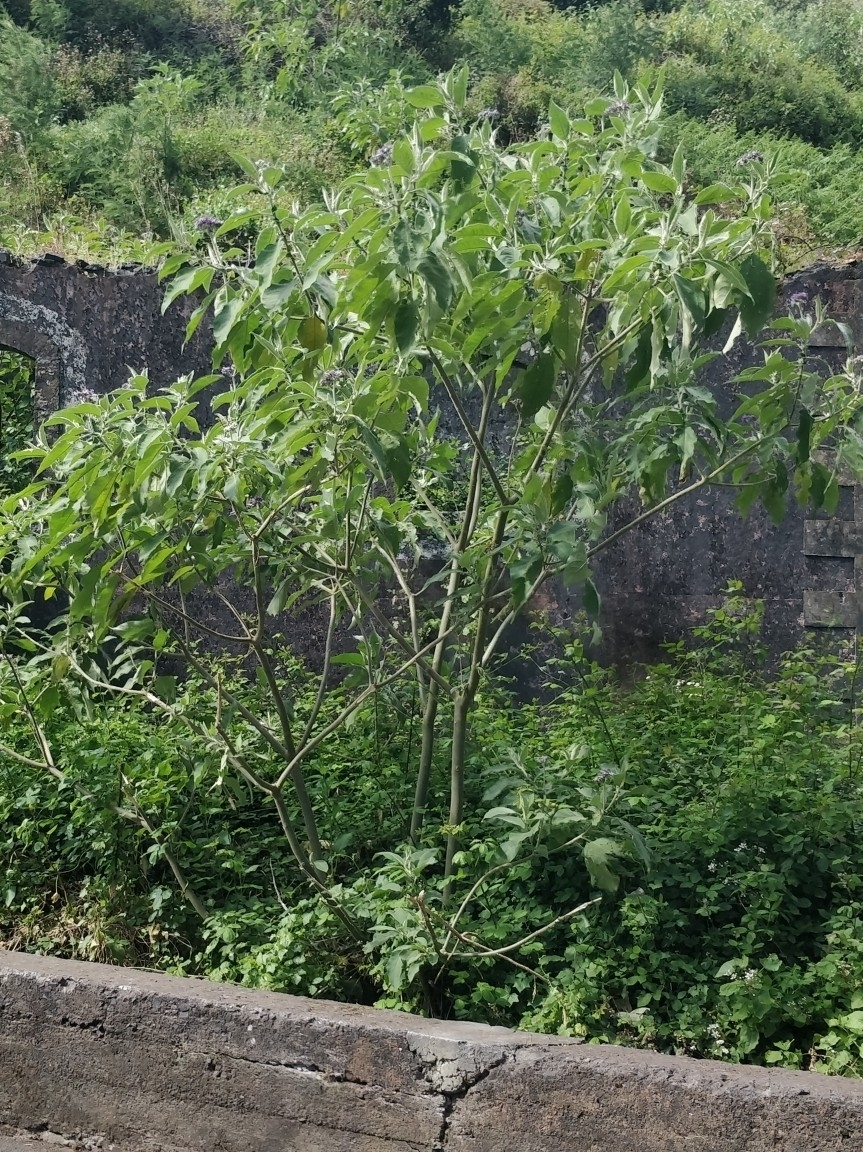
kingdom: Plantae
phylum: Tracheophyta
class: Magnoliopsida
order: Solanales
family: Solanaceae
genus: Solanum
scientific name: Solanum mauritianum
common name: Earleaf nightshade
